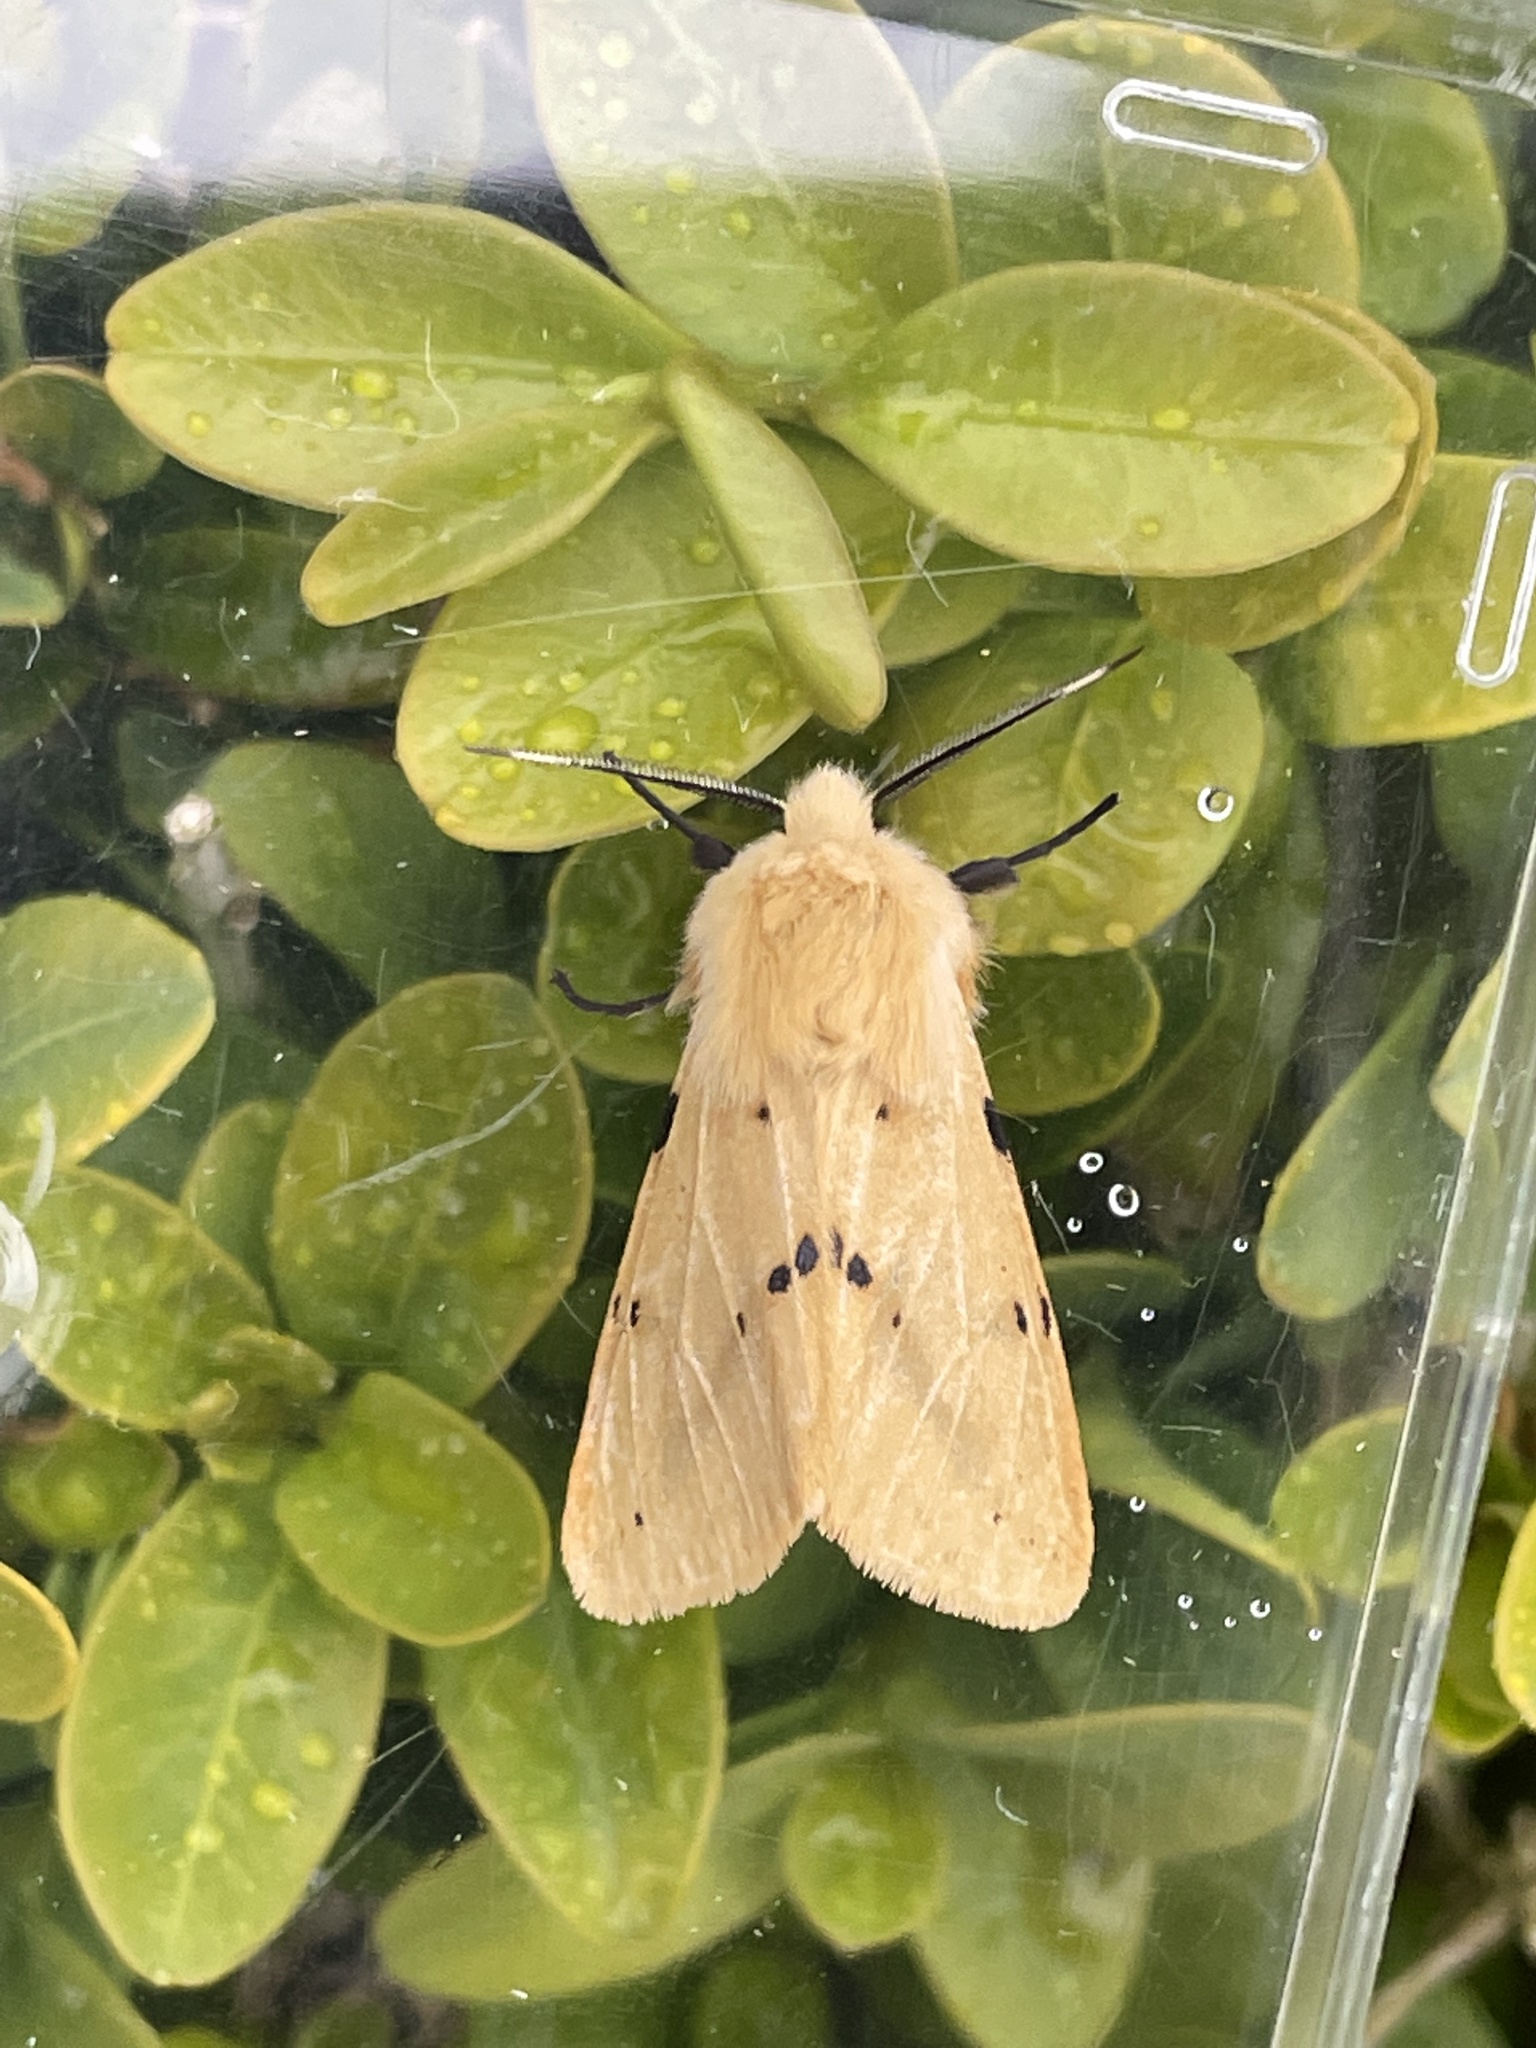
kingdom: Animalia
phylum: Arthropoda
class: Insecta
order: Lepidoptera
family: Erebidae
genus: Spilarctia
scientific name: Spilarctia lutea
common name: Buff ermine
